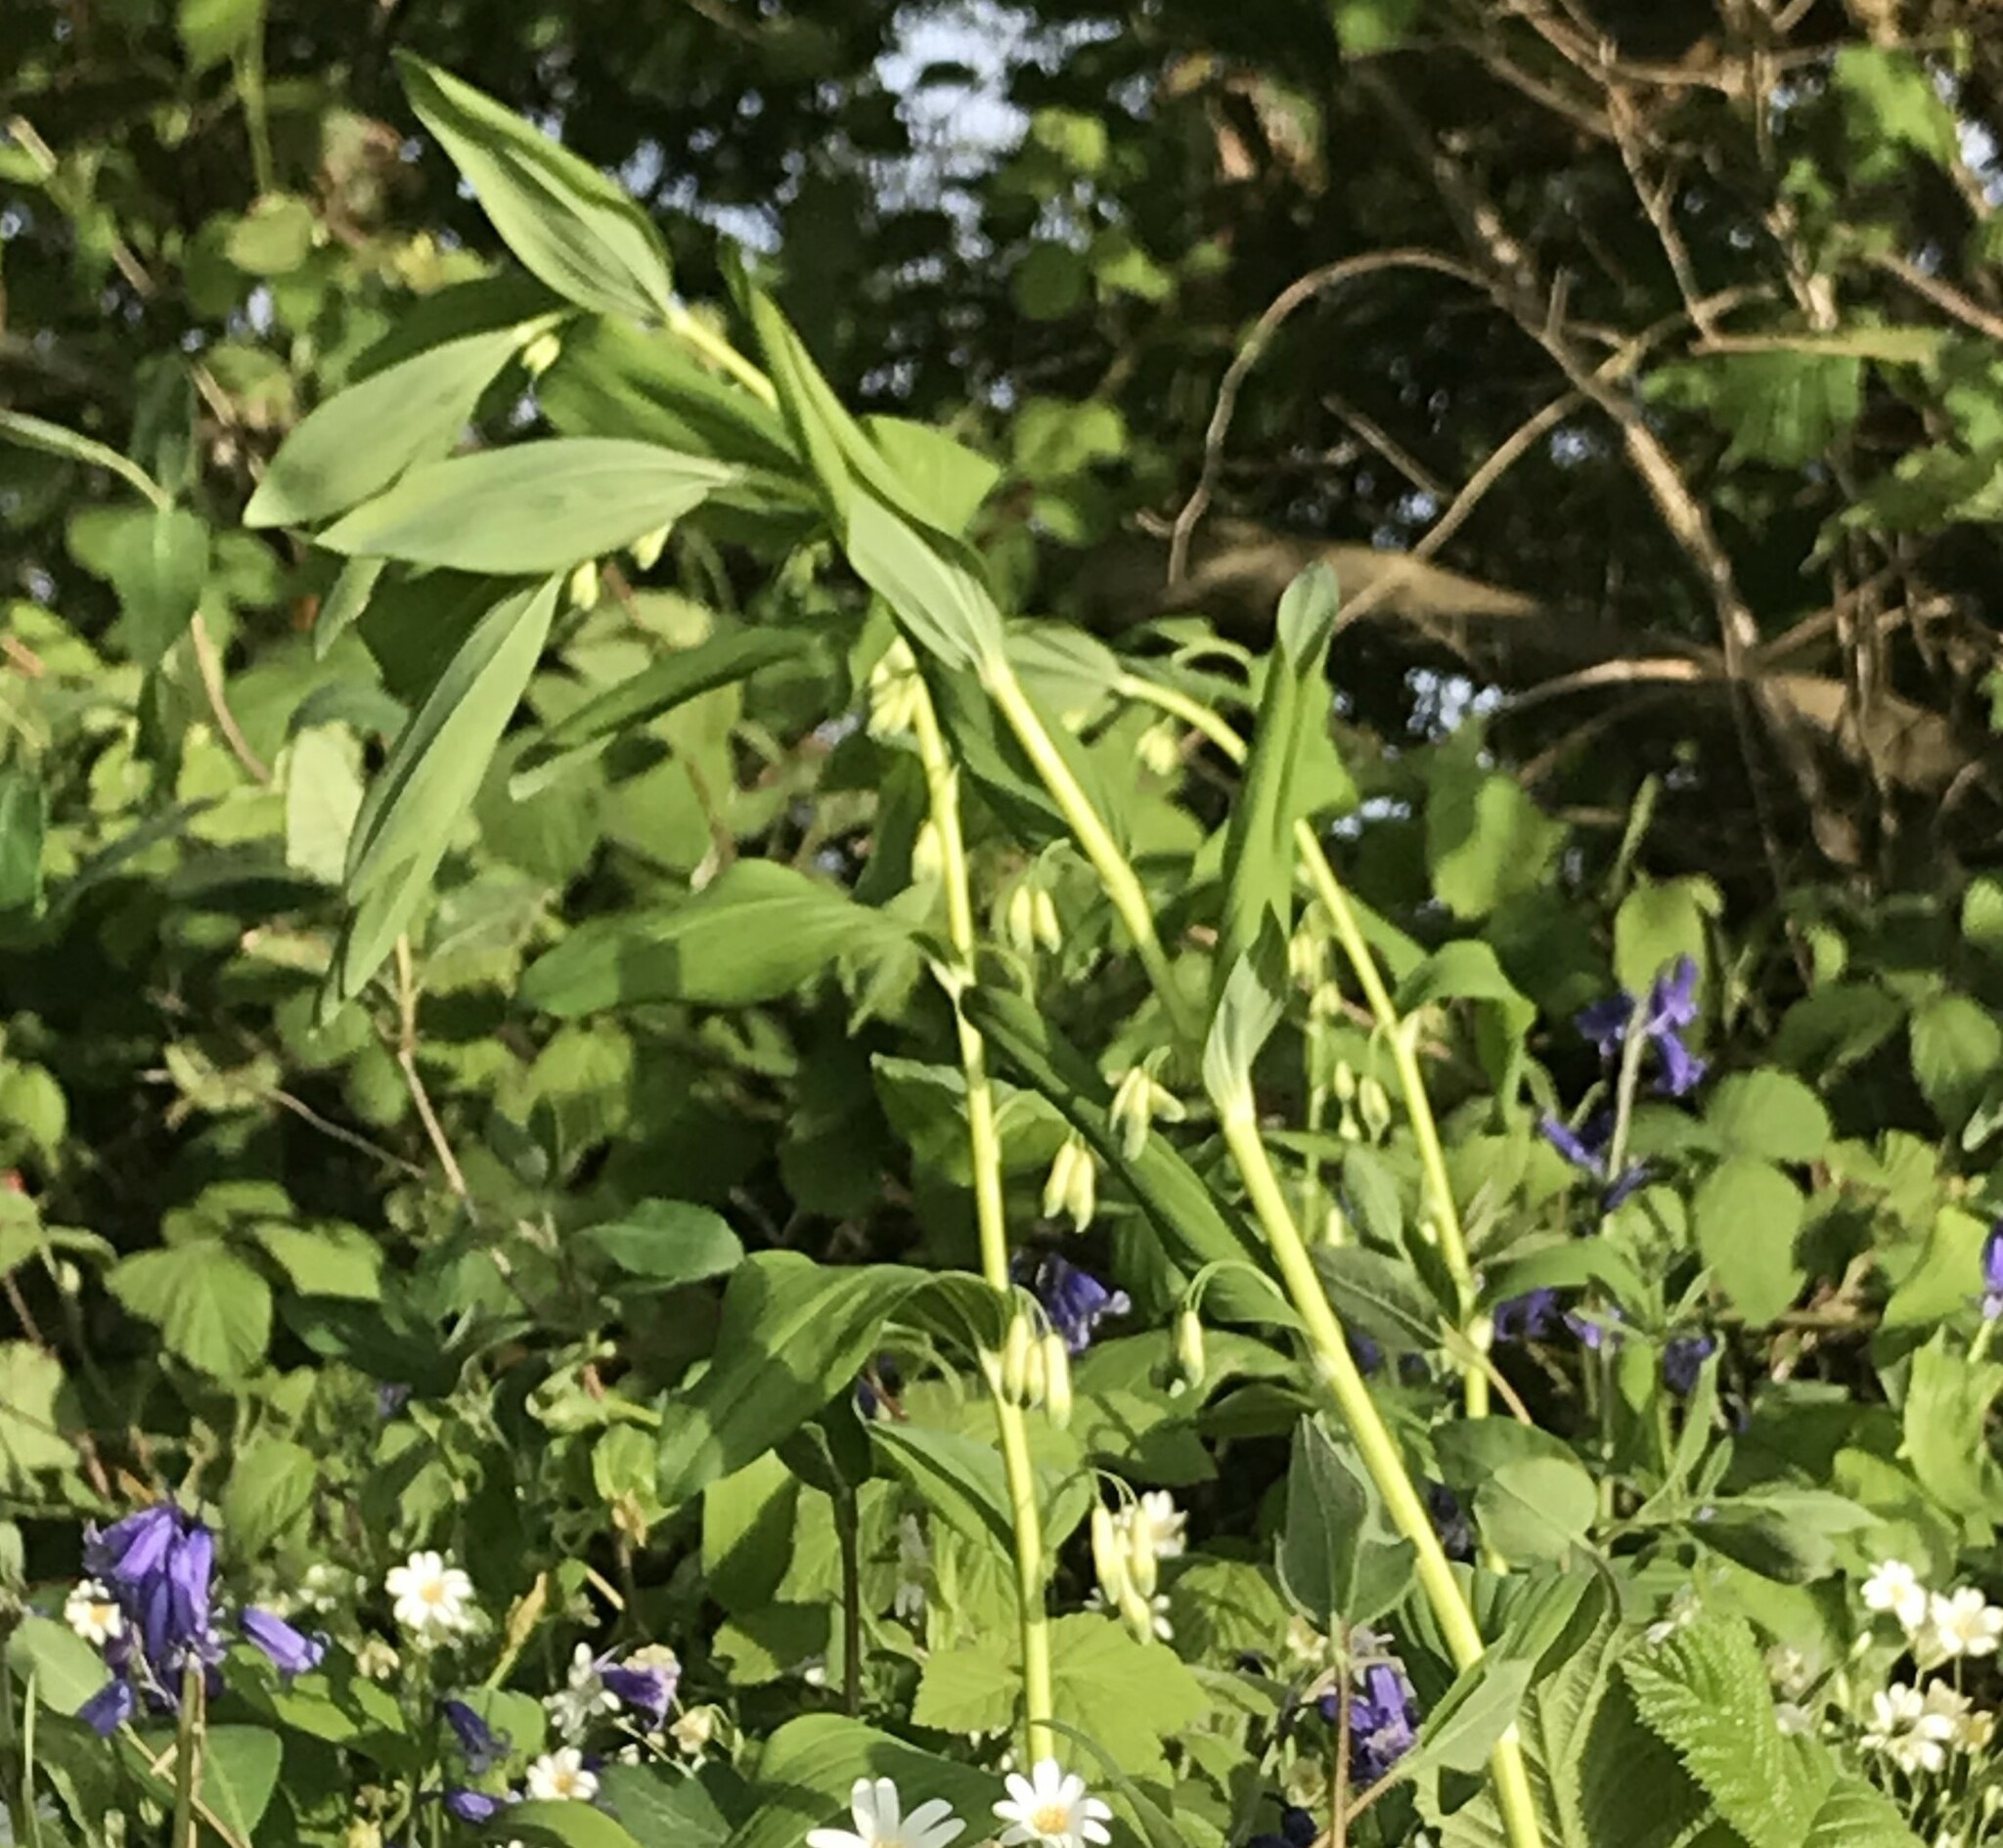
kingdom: Plantae
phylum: Tracheophyta
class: Liliopsida
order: Asparagales
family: Asparagaceae
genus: Polygonatum
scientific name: Polygonatum multiflorum
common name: Solomon's-seal
